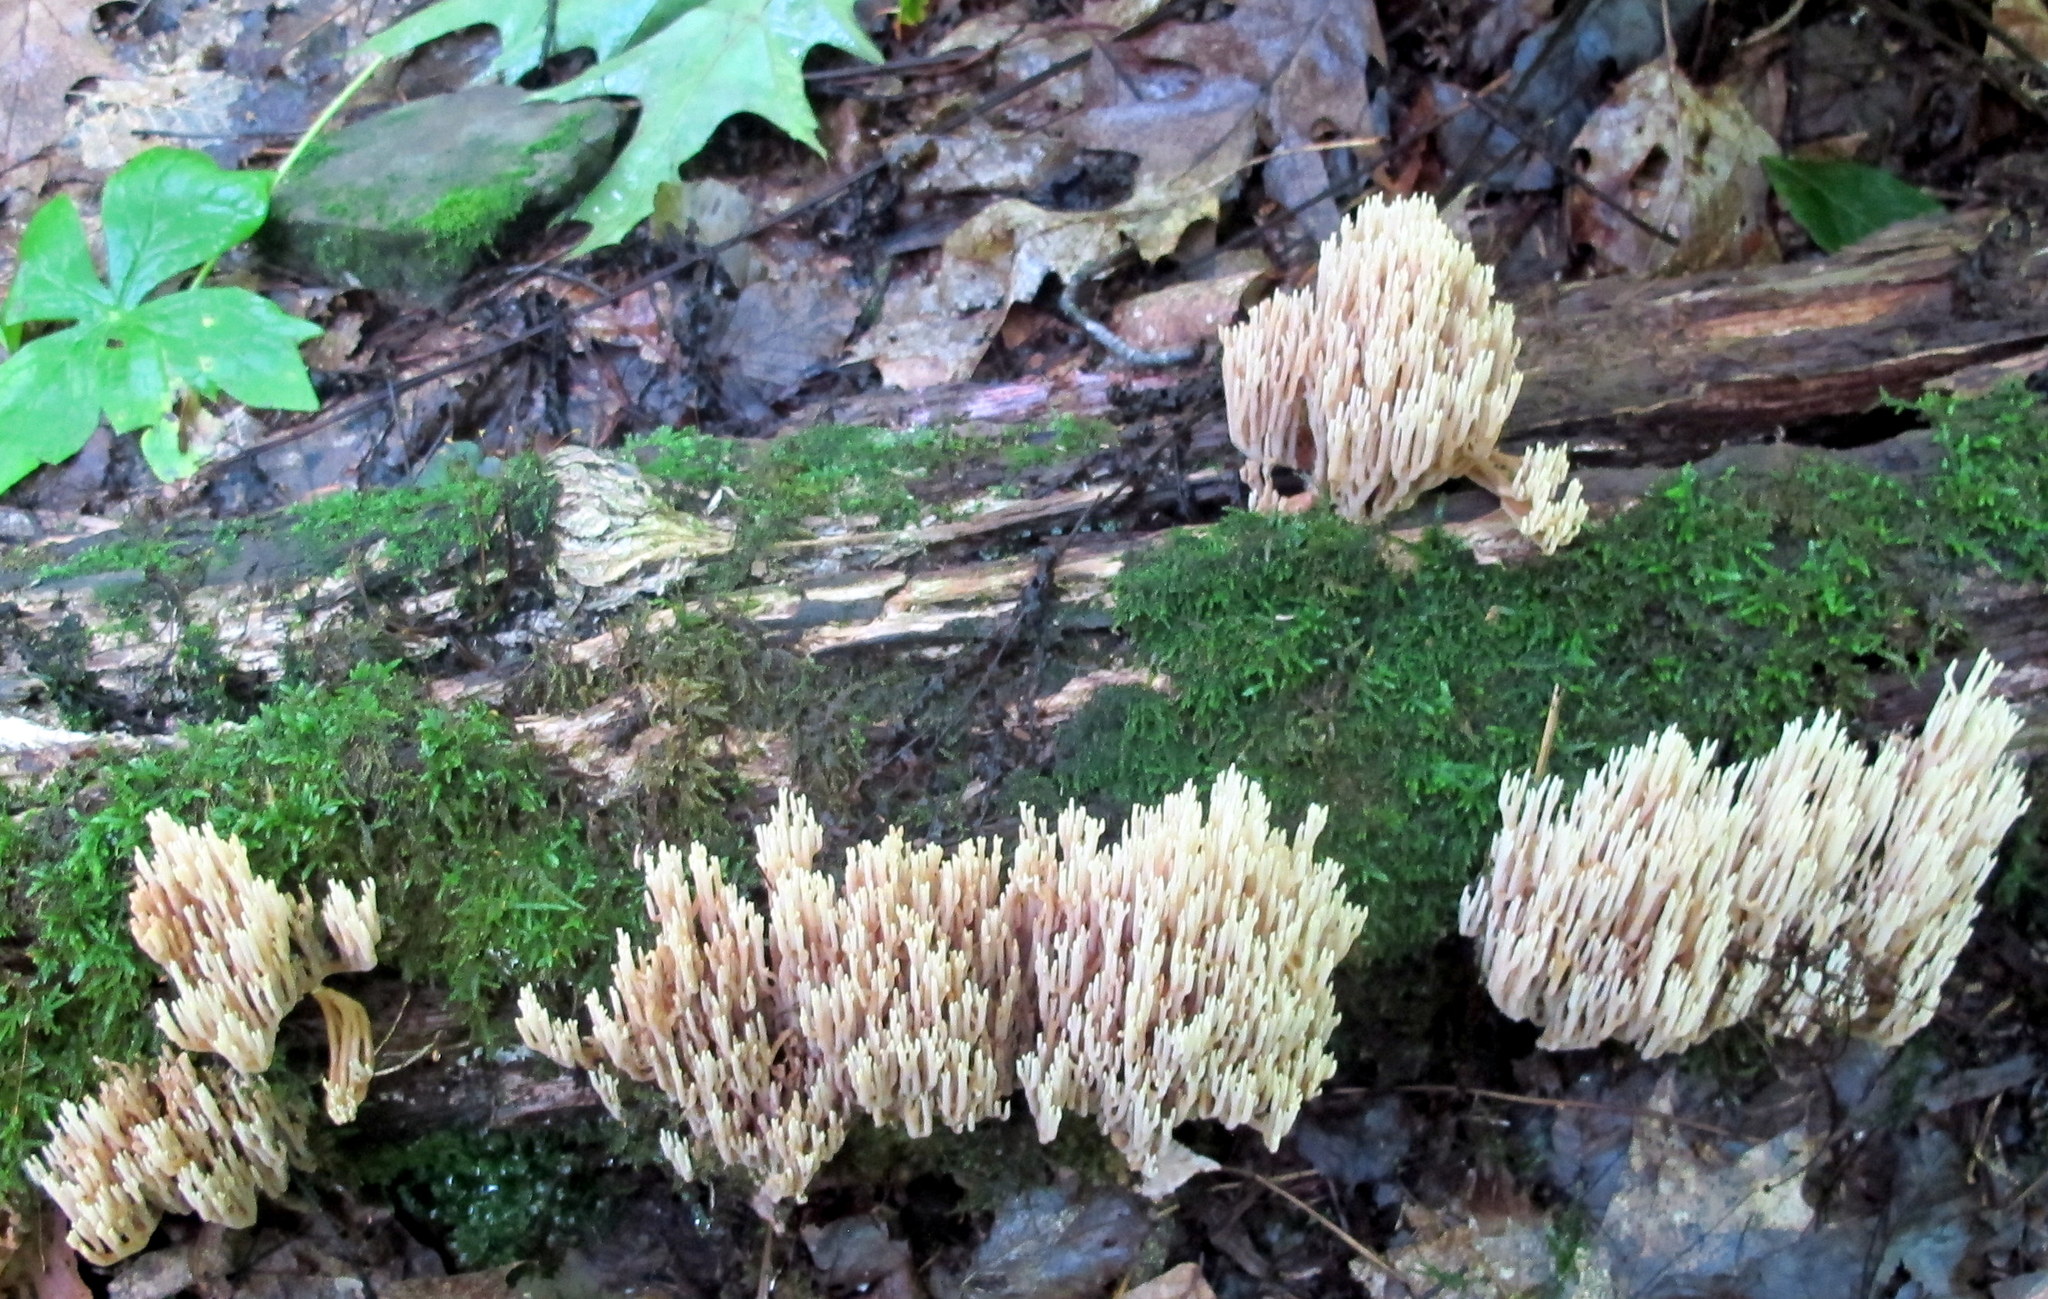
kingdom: Fungi
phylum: Basidiomycota
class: Agaricomycetes
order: Gomphales
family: Gomphaceae
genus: Ramaria
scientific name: Ramaria stricta
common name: Upright coral
